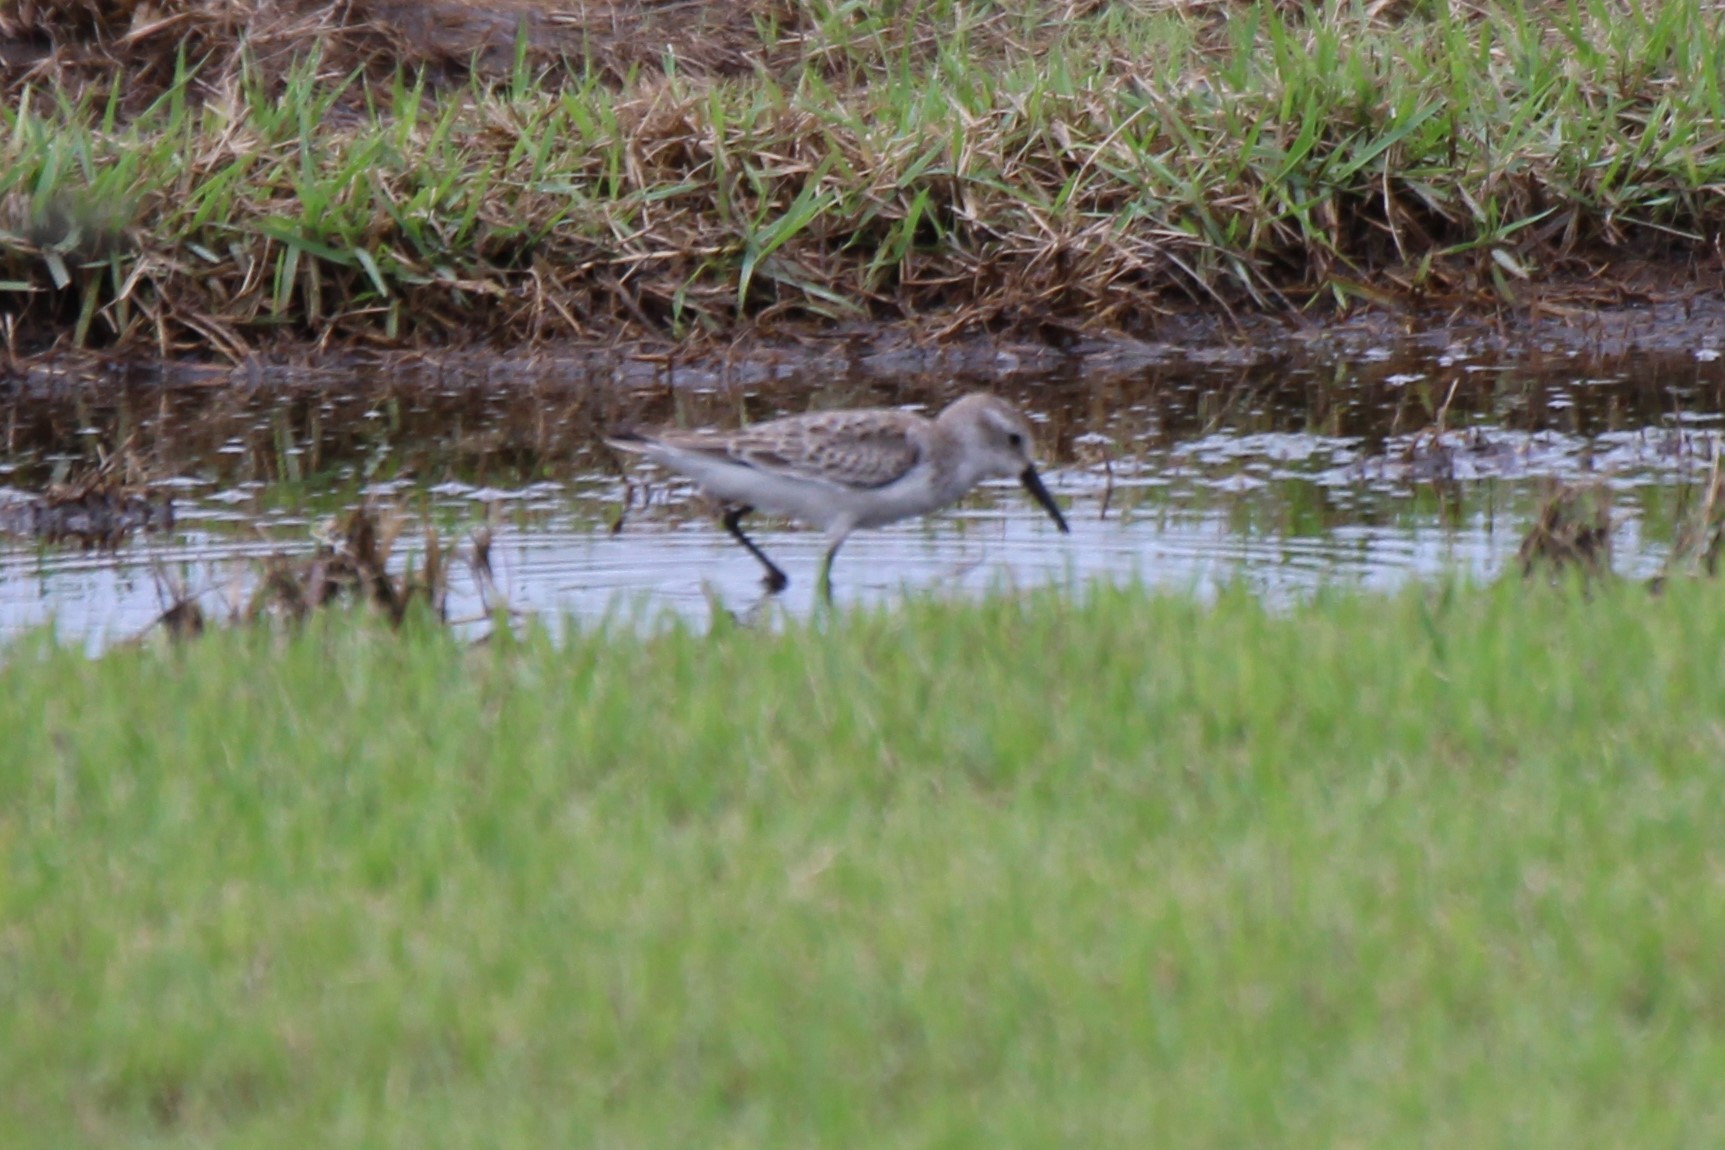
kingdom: Animalia
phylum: Chordata
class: Aves
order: Charadriiformes
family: Scolopacidae
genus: Calidris
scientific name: Calidris mauri
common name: Western sandpiper
